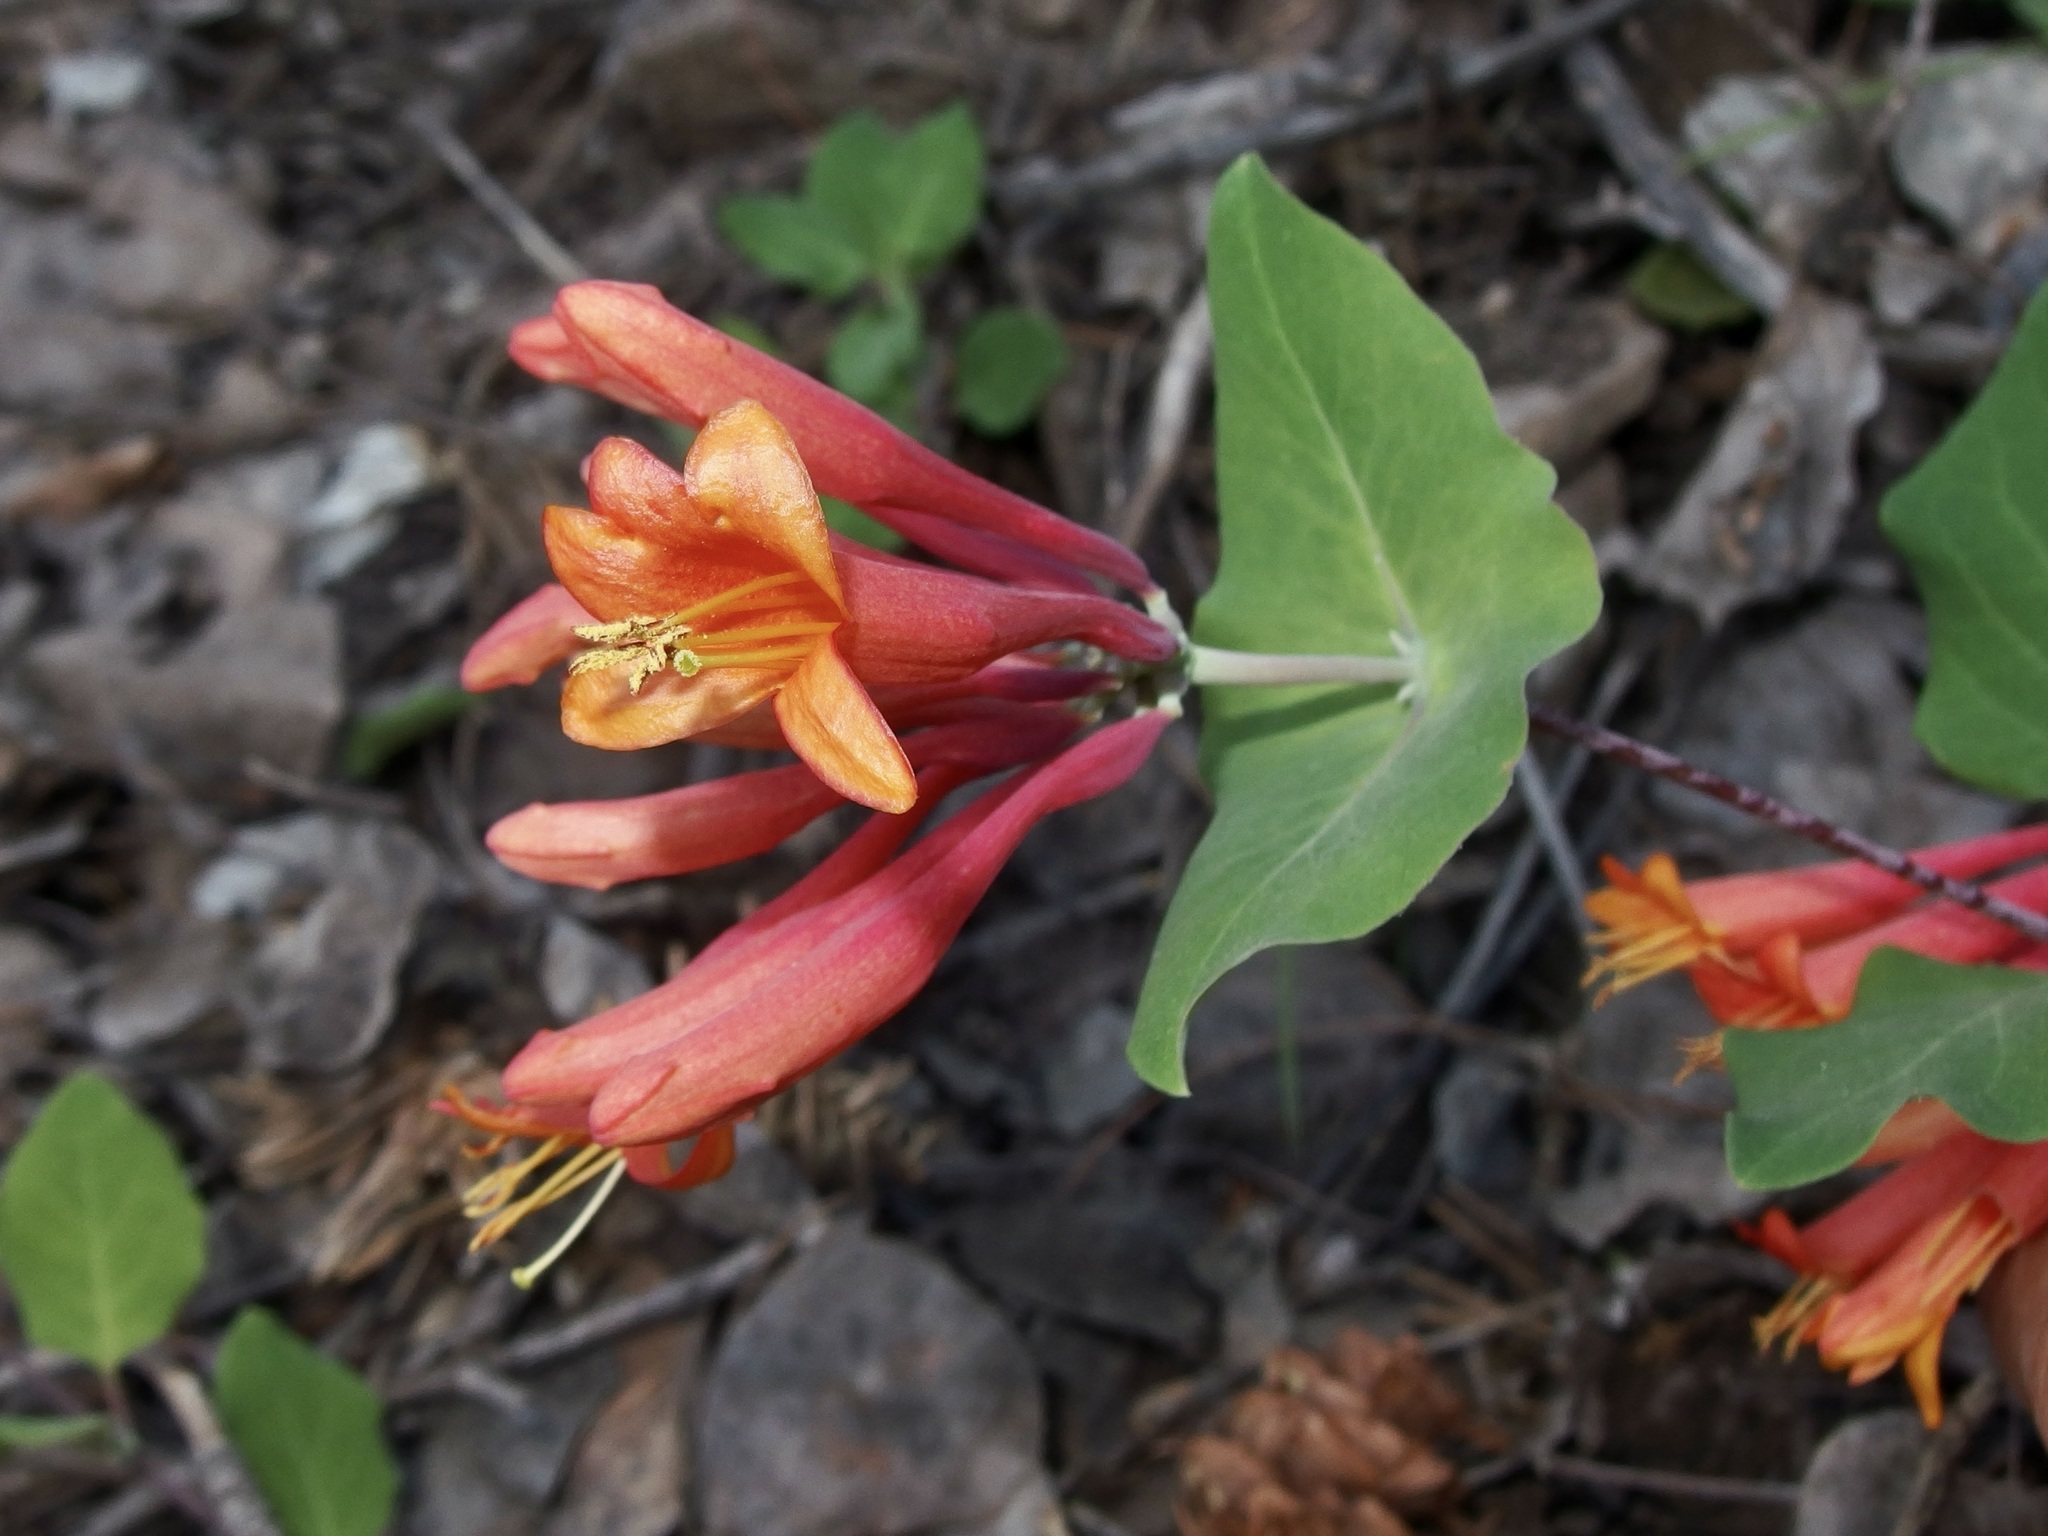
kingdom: Plantae
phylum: Tracheophyta
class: Magnoliopsida
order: Dipsacales
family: Caprifoliaceae
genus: Lonicera
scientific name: Lonicera arizonica
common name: Arizona honeysuckle
